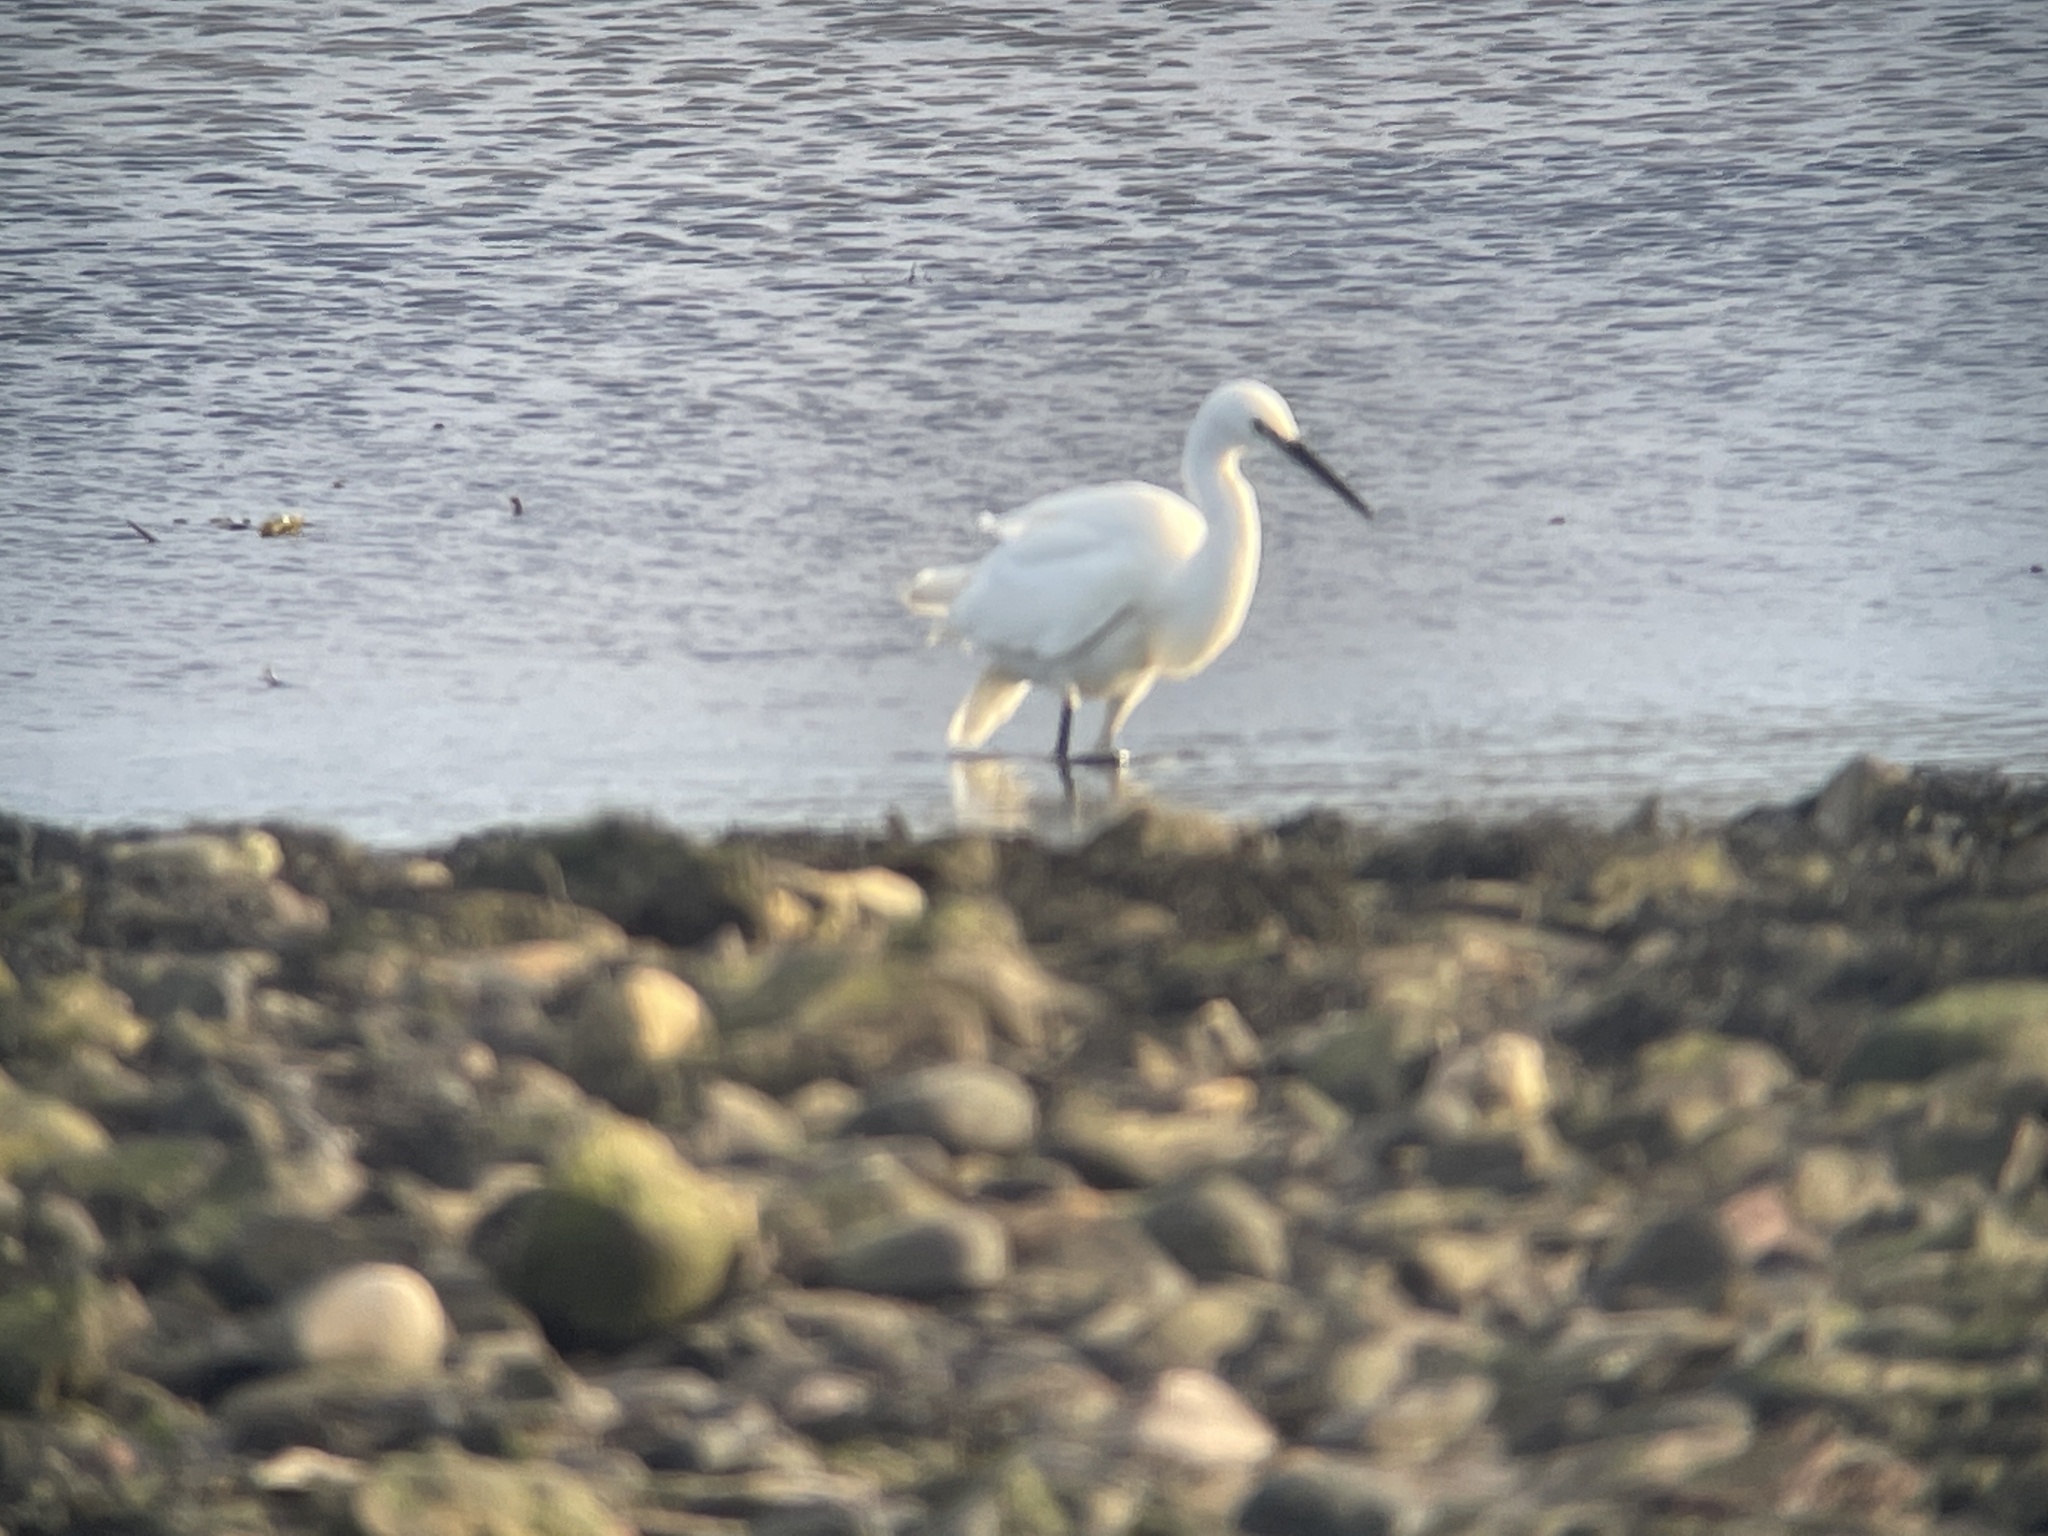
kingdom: Animalia
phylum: Chordata
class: Aves
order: Pelecaniformes
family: Ardeidae
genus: Egretta
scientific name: Egretta garzetta
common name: Little egret
